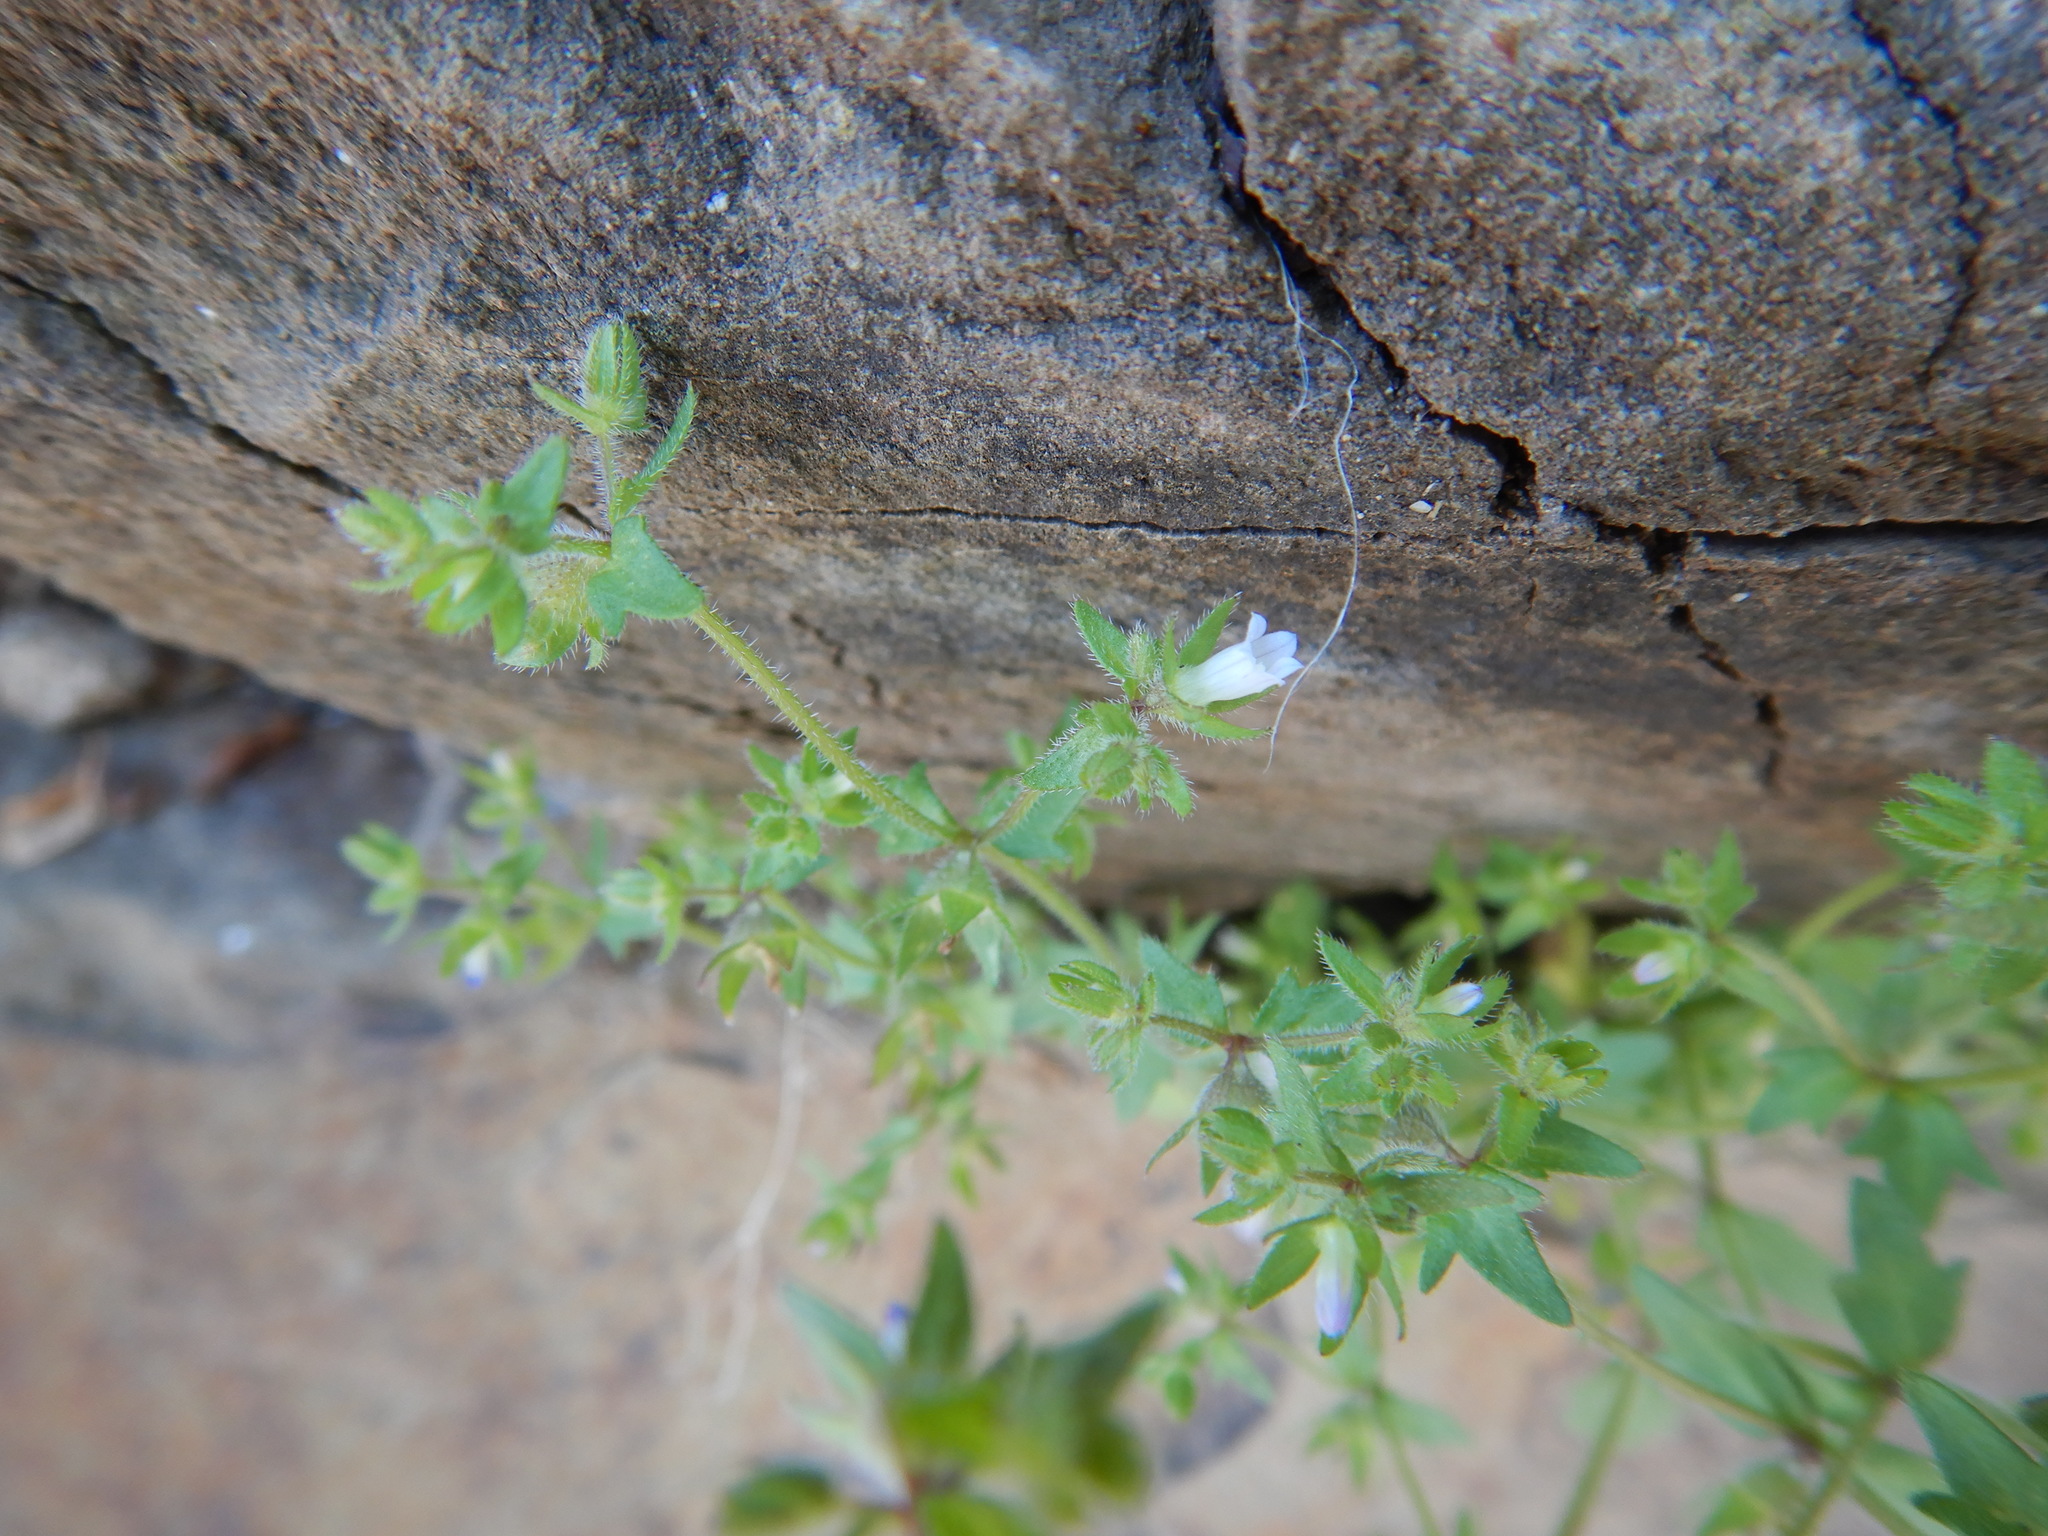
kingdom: Plantae
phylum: Tracheophyta
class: Magnoliopsida
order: Asterales
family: Campanulaceae
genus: Campanula
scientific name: Campanula erinus
